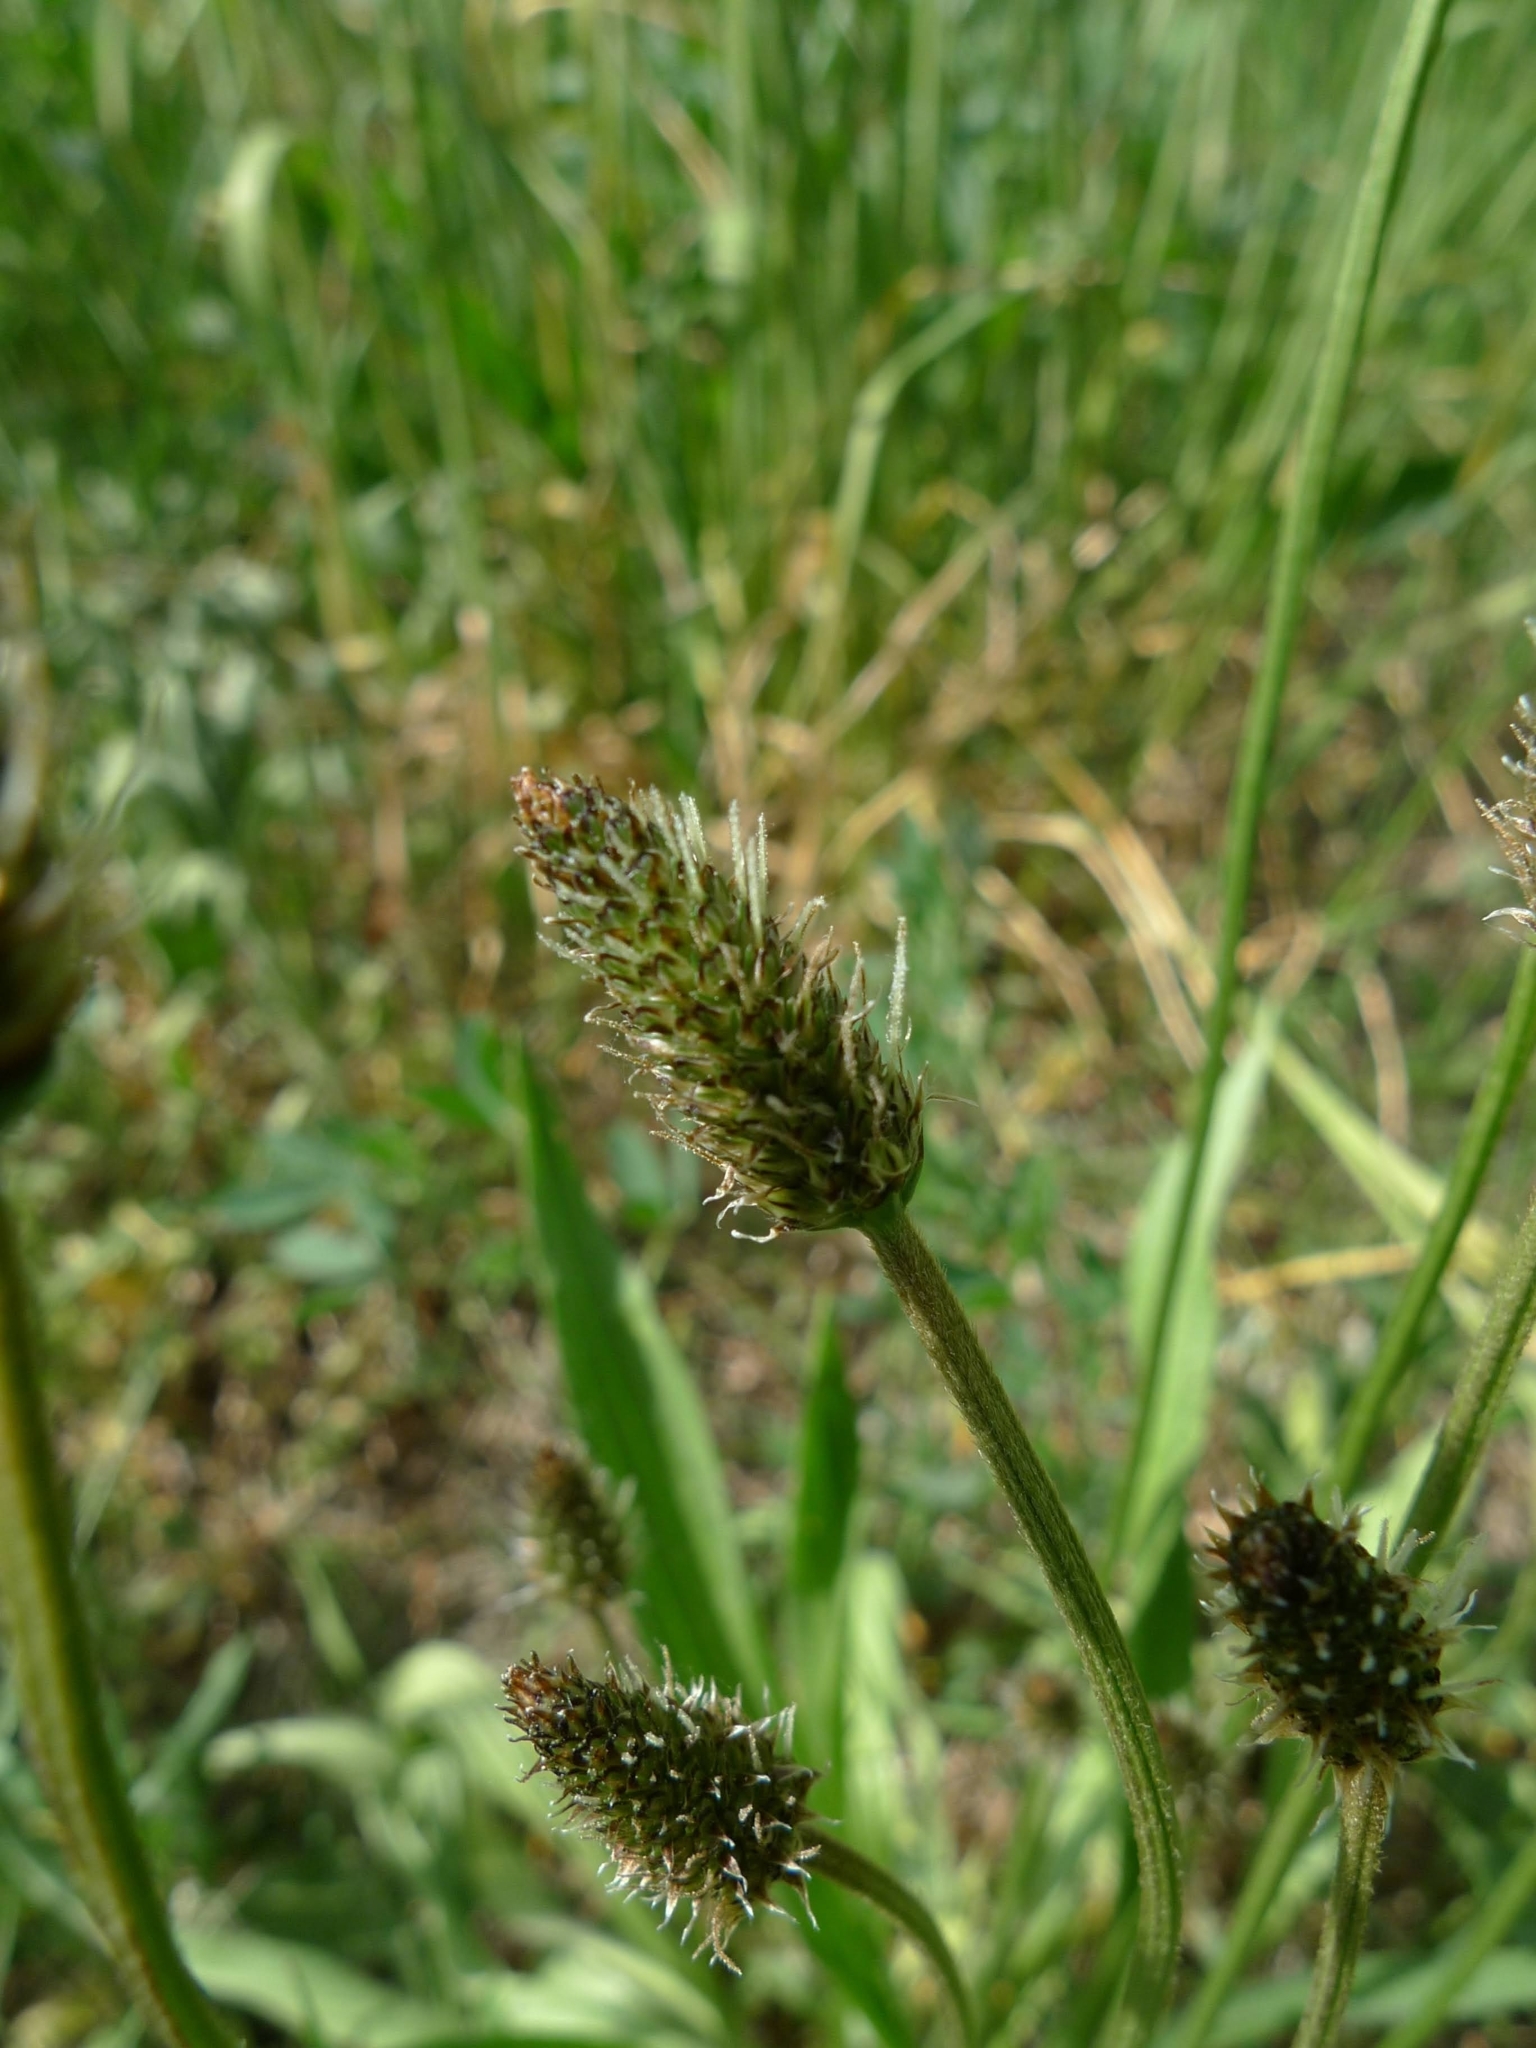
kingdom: Plantae
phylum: Tracheophyta
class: Magnoliopsida
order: Lamiales
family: Plantaginaceae
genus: Plantago
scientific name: Plantago lanceolata
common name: Ribwort plantain
